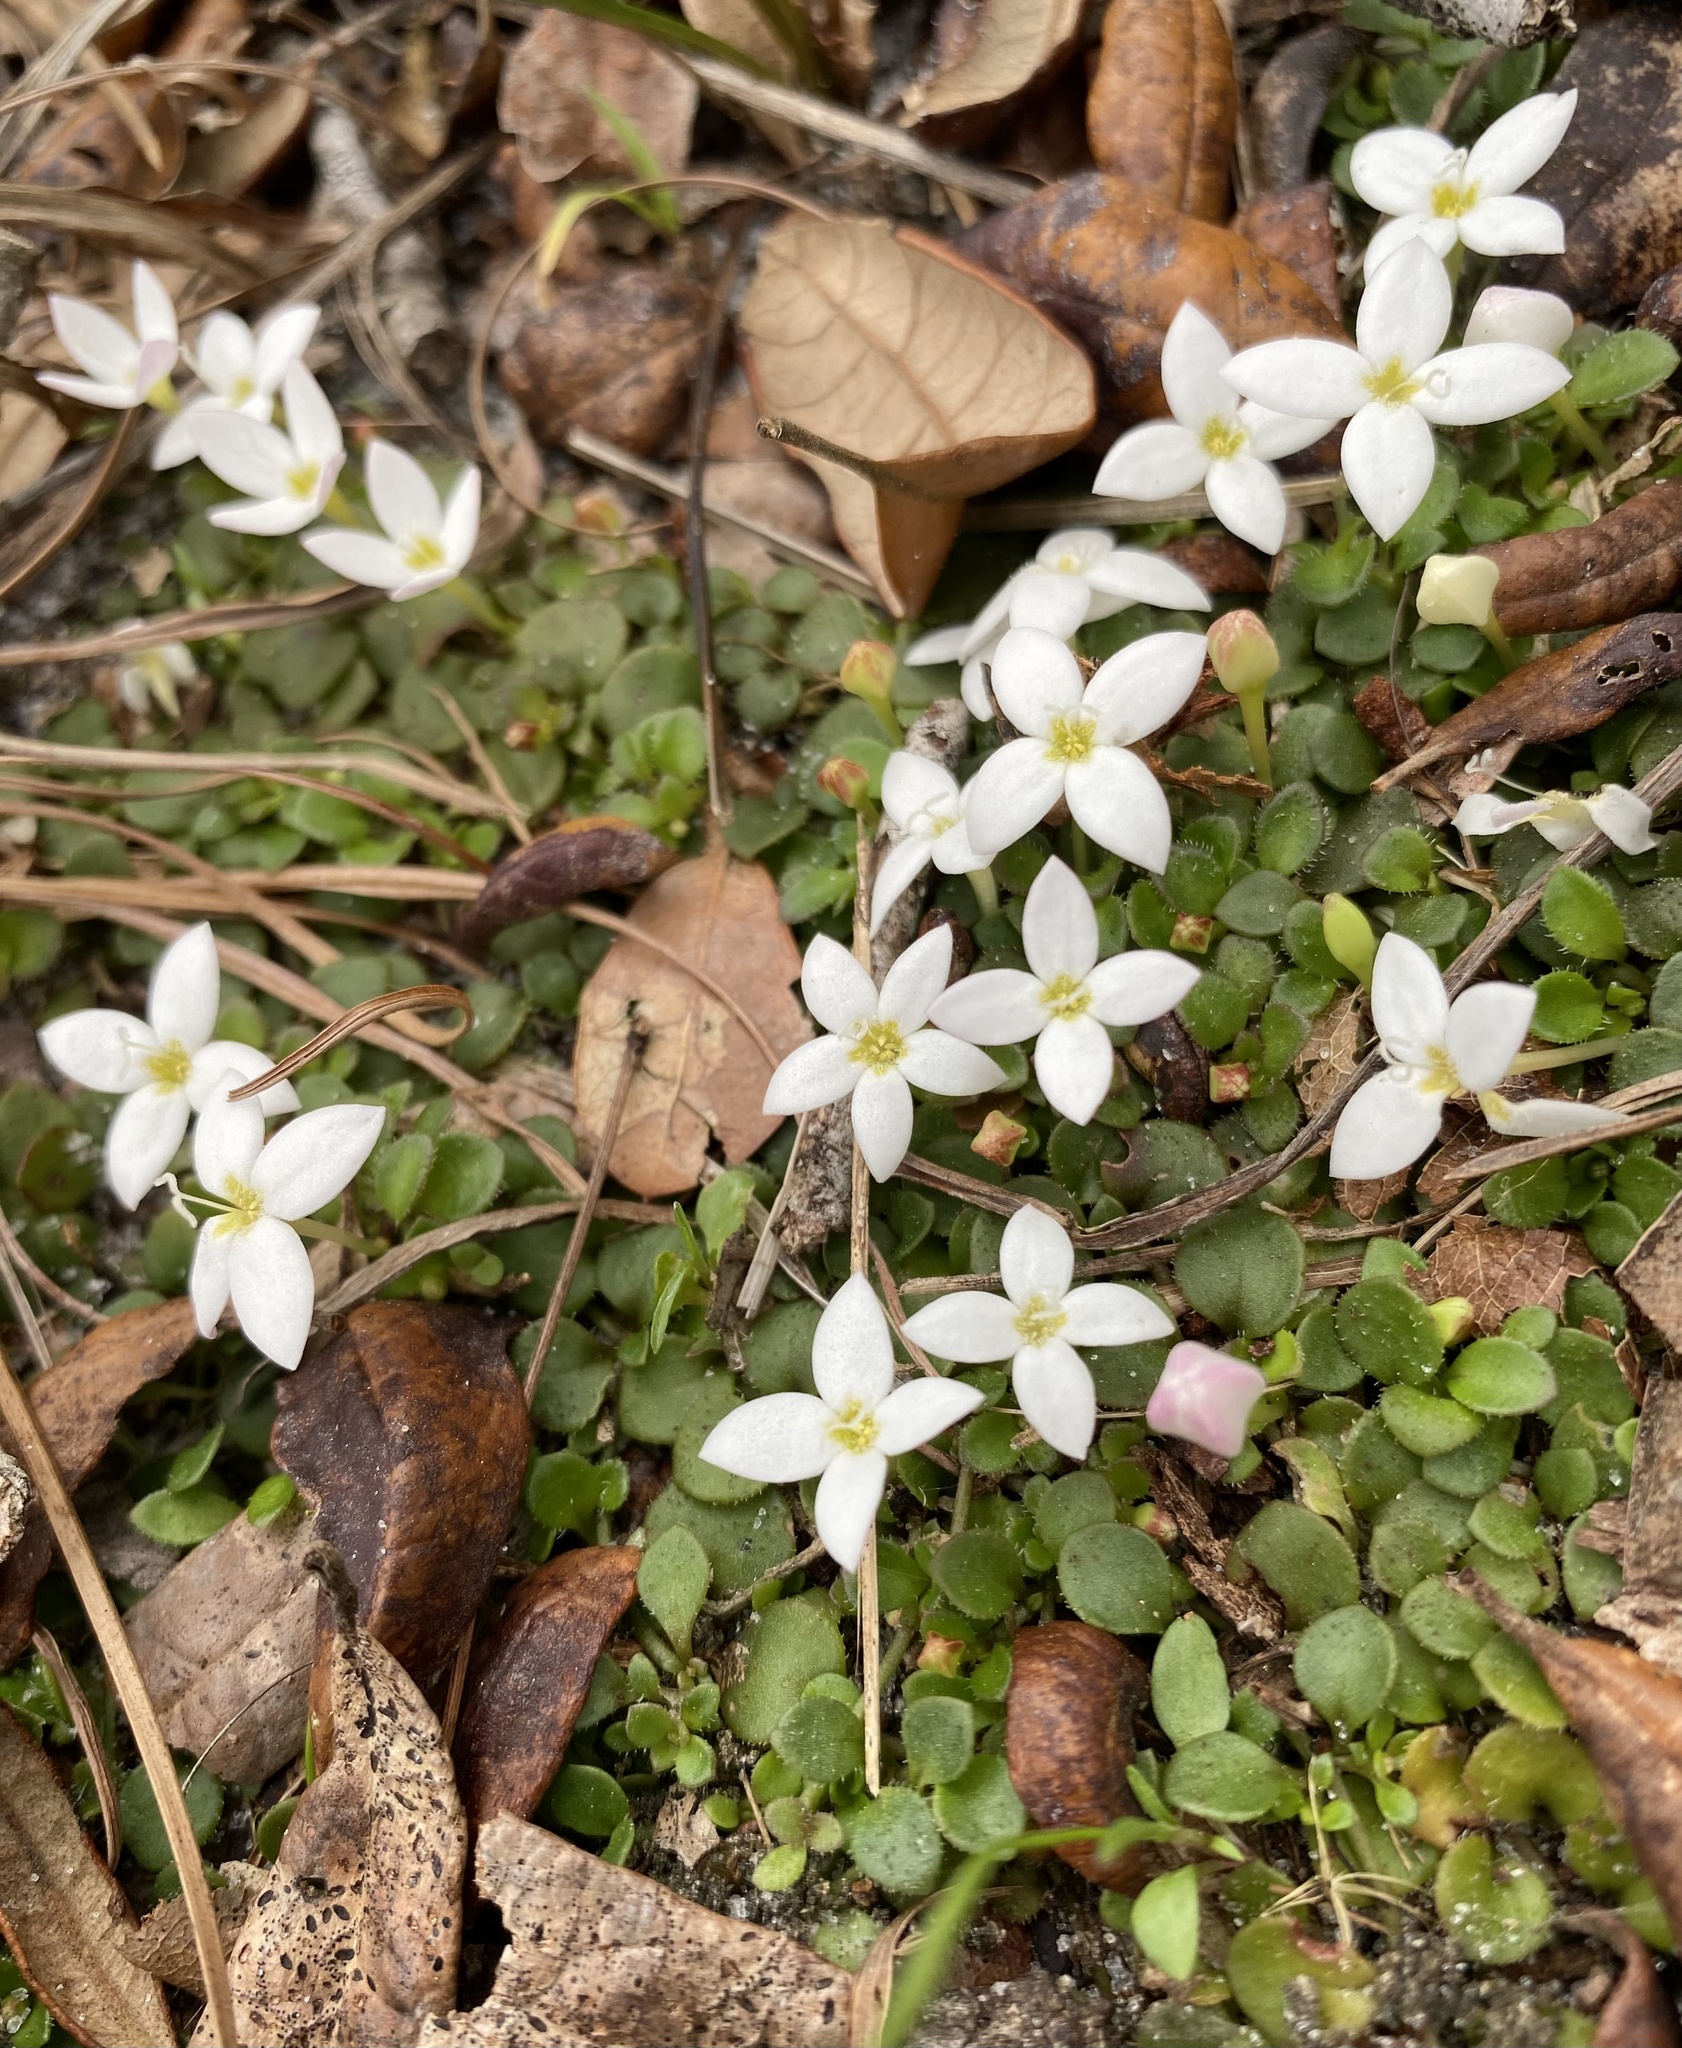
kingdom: Plantae
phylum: Tracheophyta
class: Magnoliopsida
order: Gentianales
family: Rubiaceae
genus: Houstonia
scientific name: Houstonia procumbens
